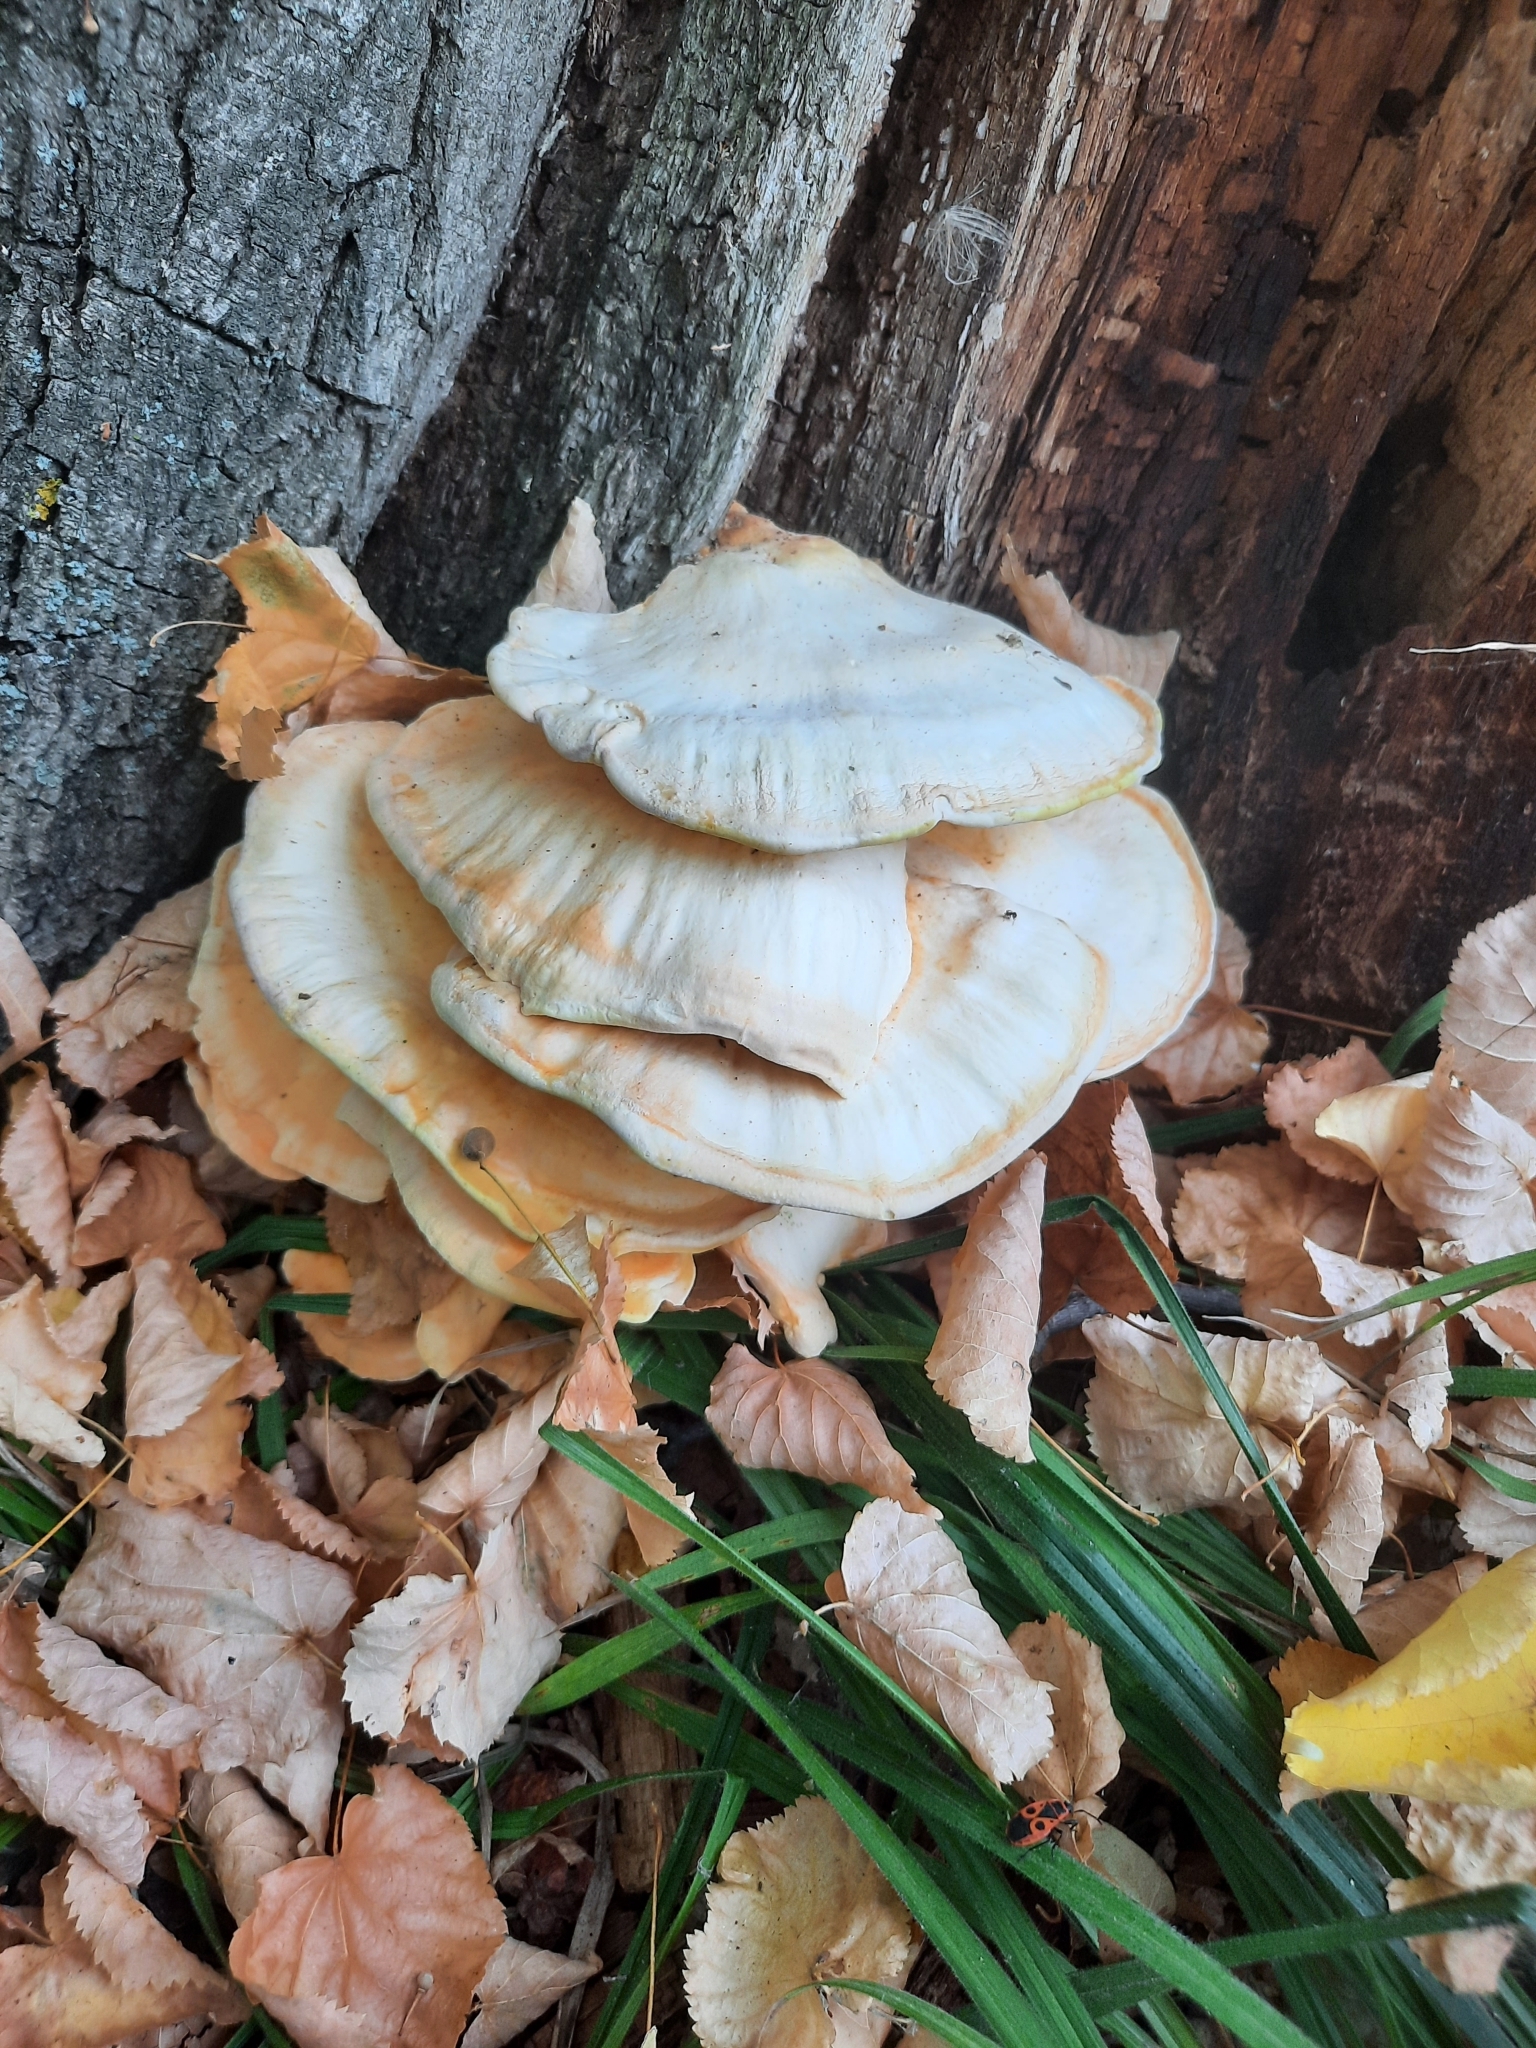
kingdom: Fungi
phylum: Basidiomycota
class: Agaricomycetes
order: Polyporales
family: Laetiporaceae
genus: Laetiporus
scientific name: Laetiporus sulphureus
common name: Chicken of the woods
